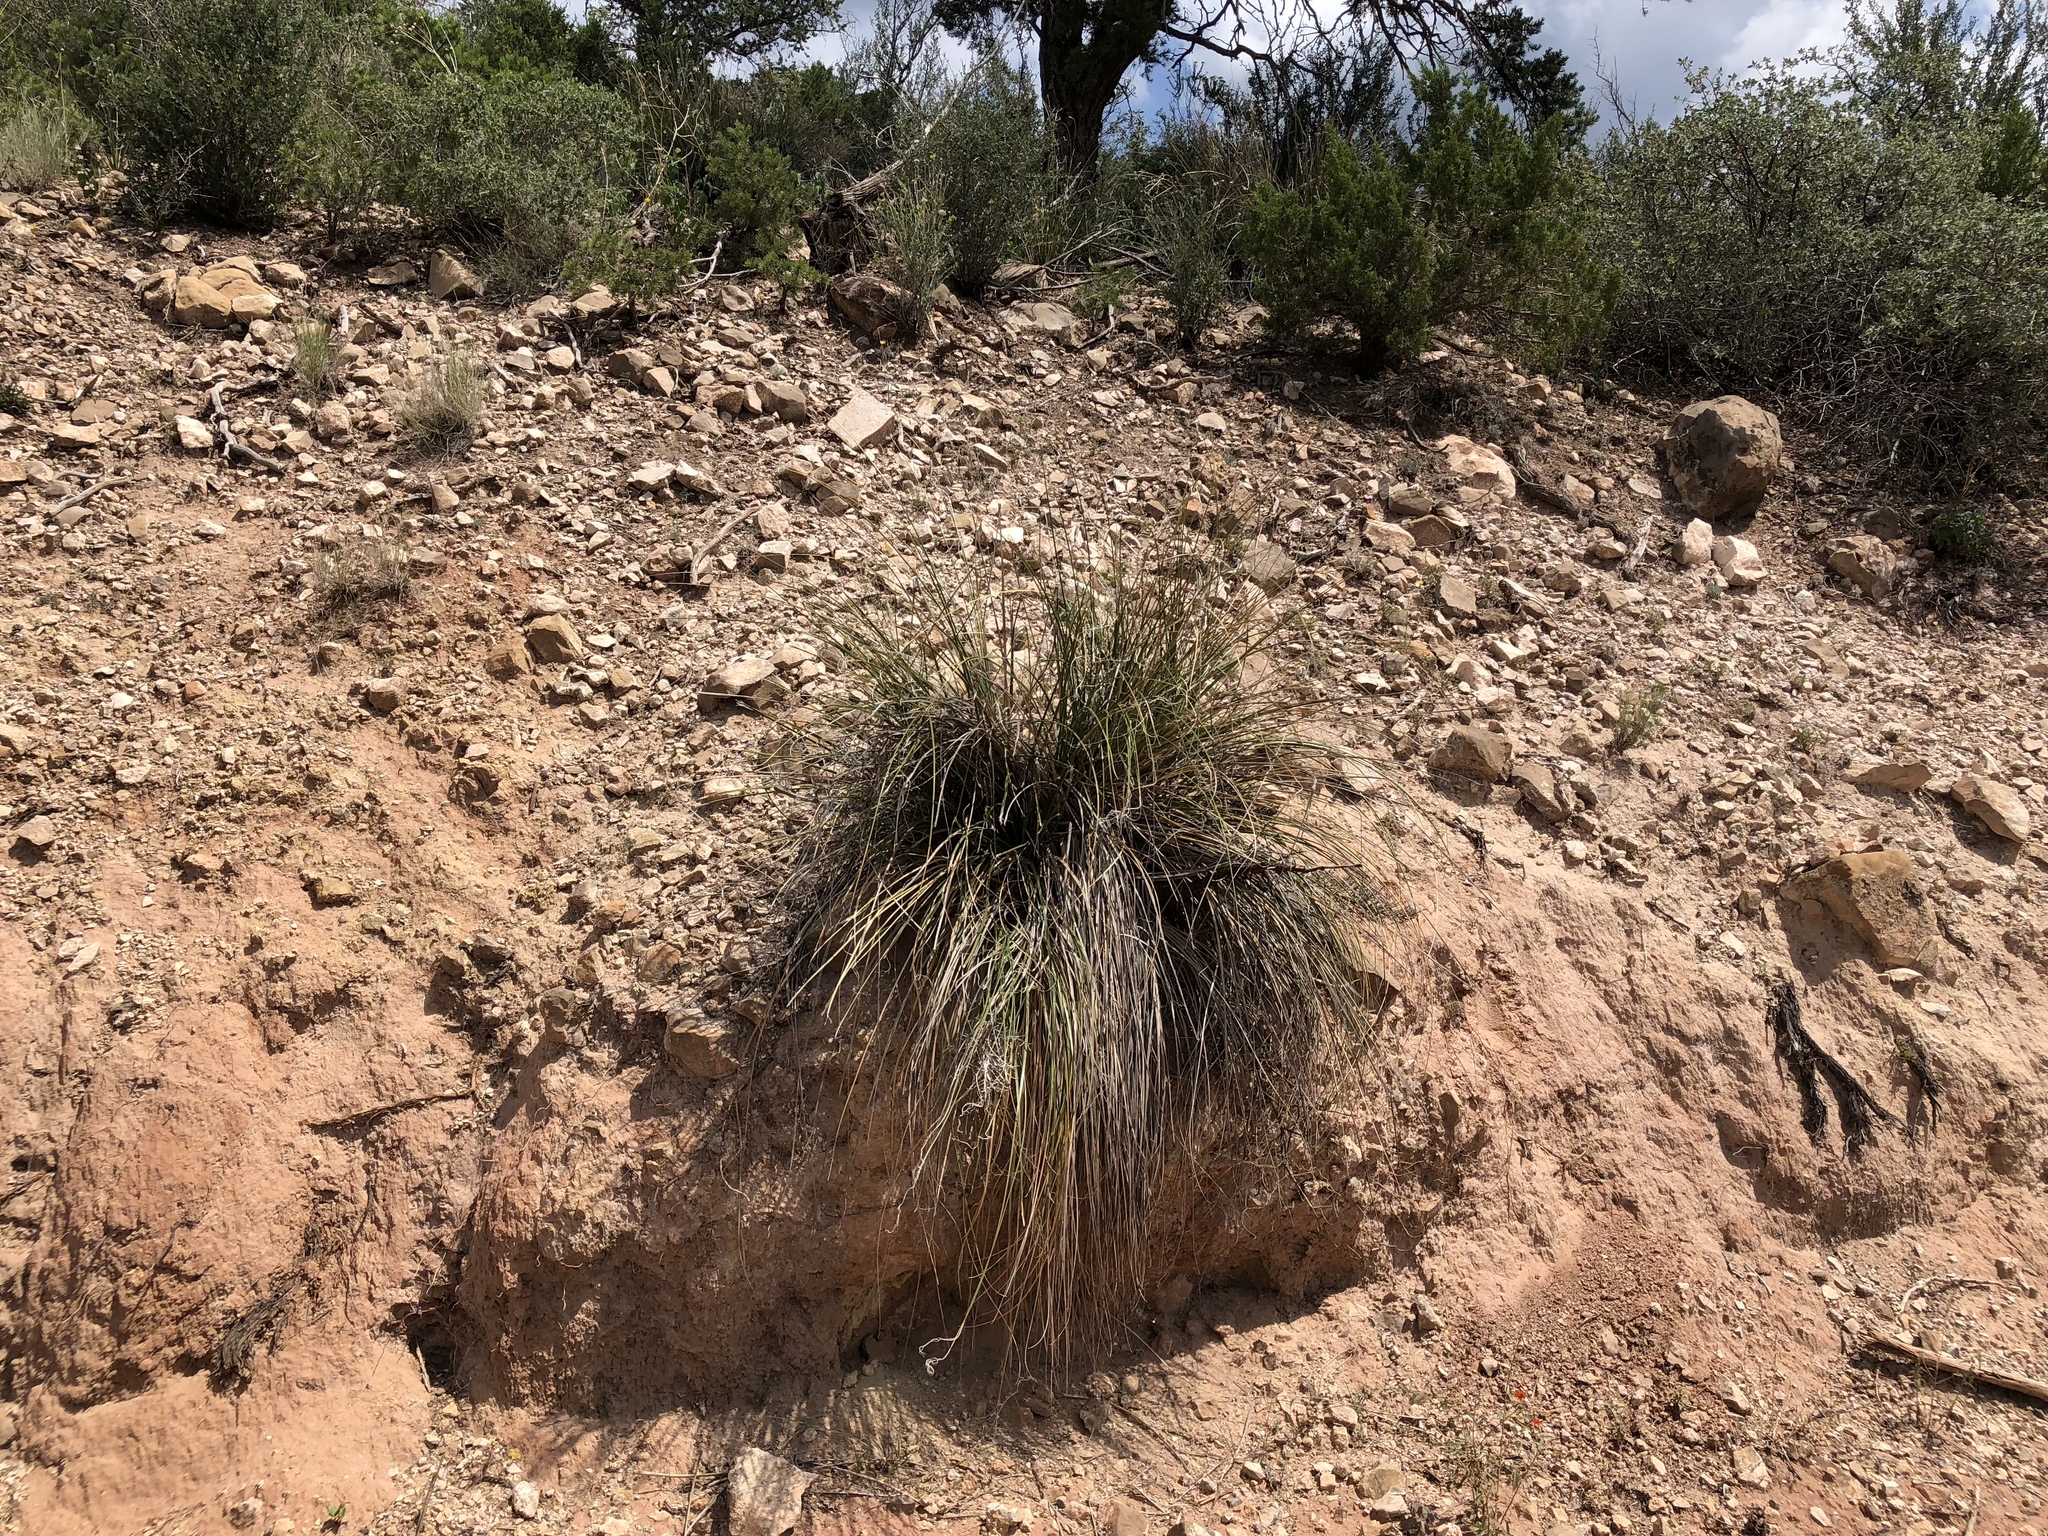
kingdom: Plantae
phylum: Tracheophyta
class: Liliopsida
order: Asparagales
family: Asparagaceae
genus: Nolina
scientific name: Nolina texana
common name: Texas sacahuiste
